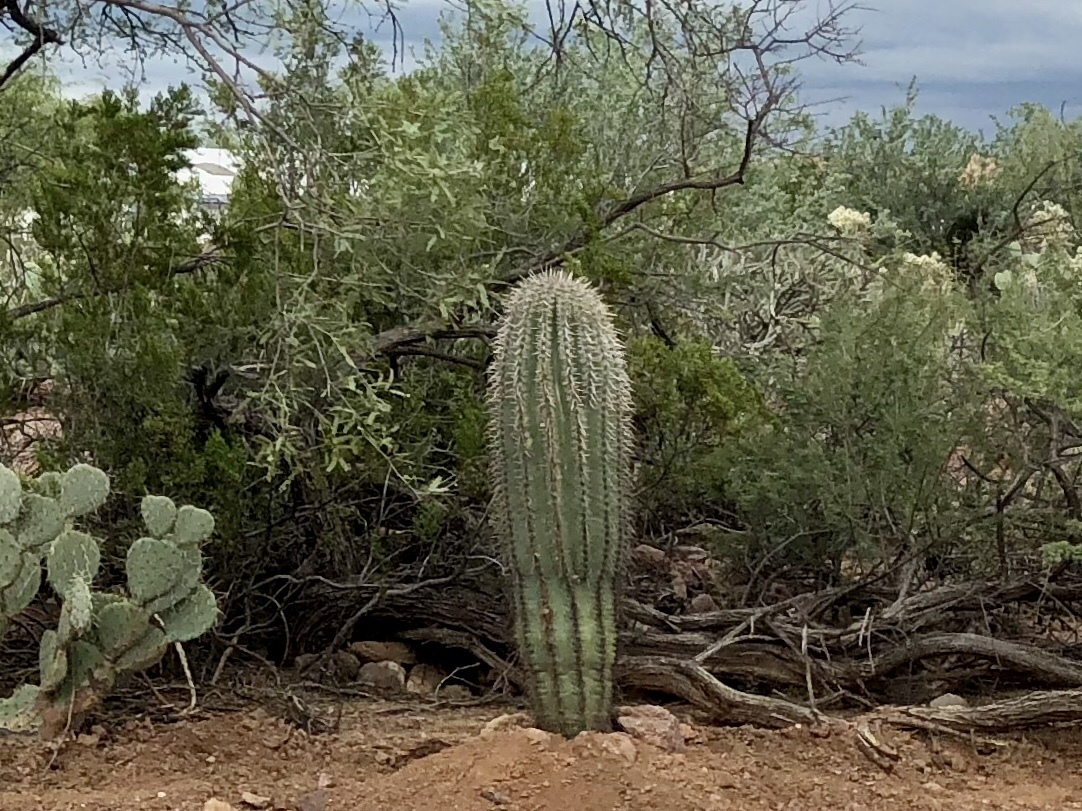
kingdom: Plantae
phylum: Tracheophyta
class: Magnoliopsida
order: Caryophyllales
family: Cactaceae
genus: Carnegiea
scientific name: Carnegiea gigantea
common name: Saguaro
